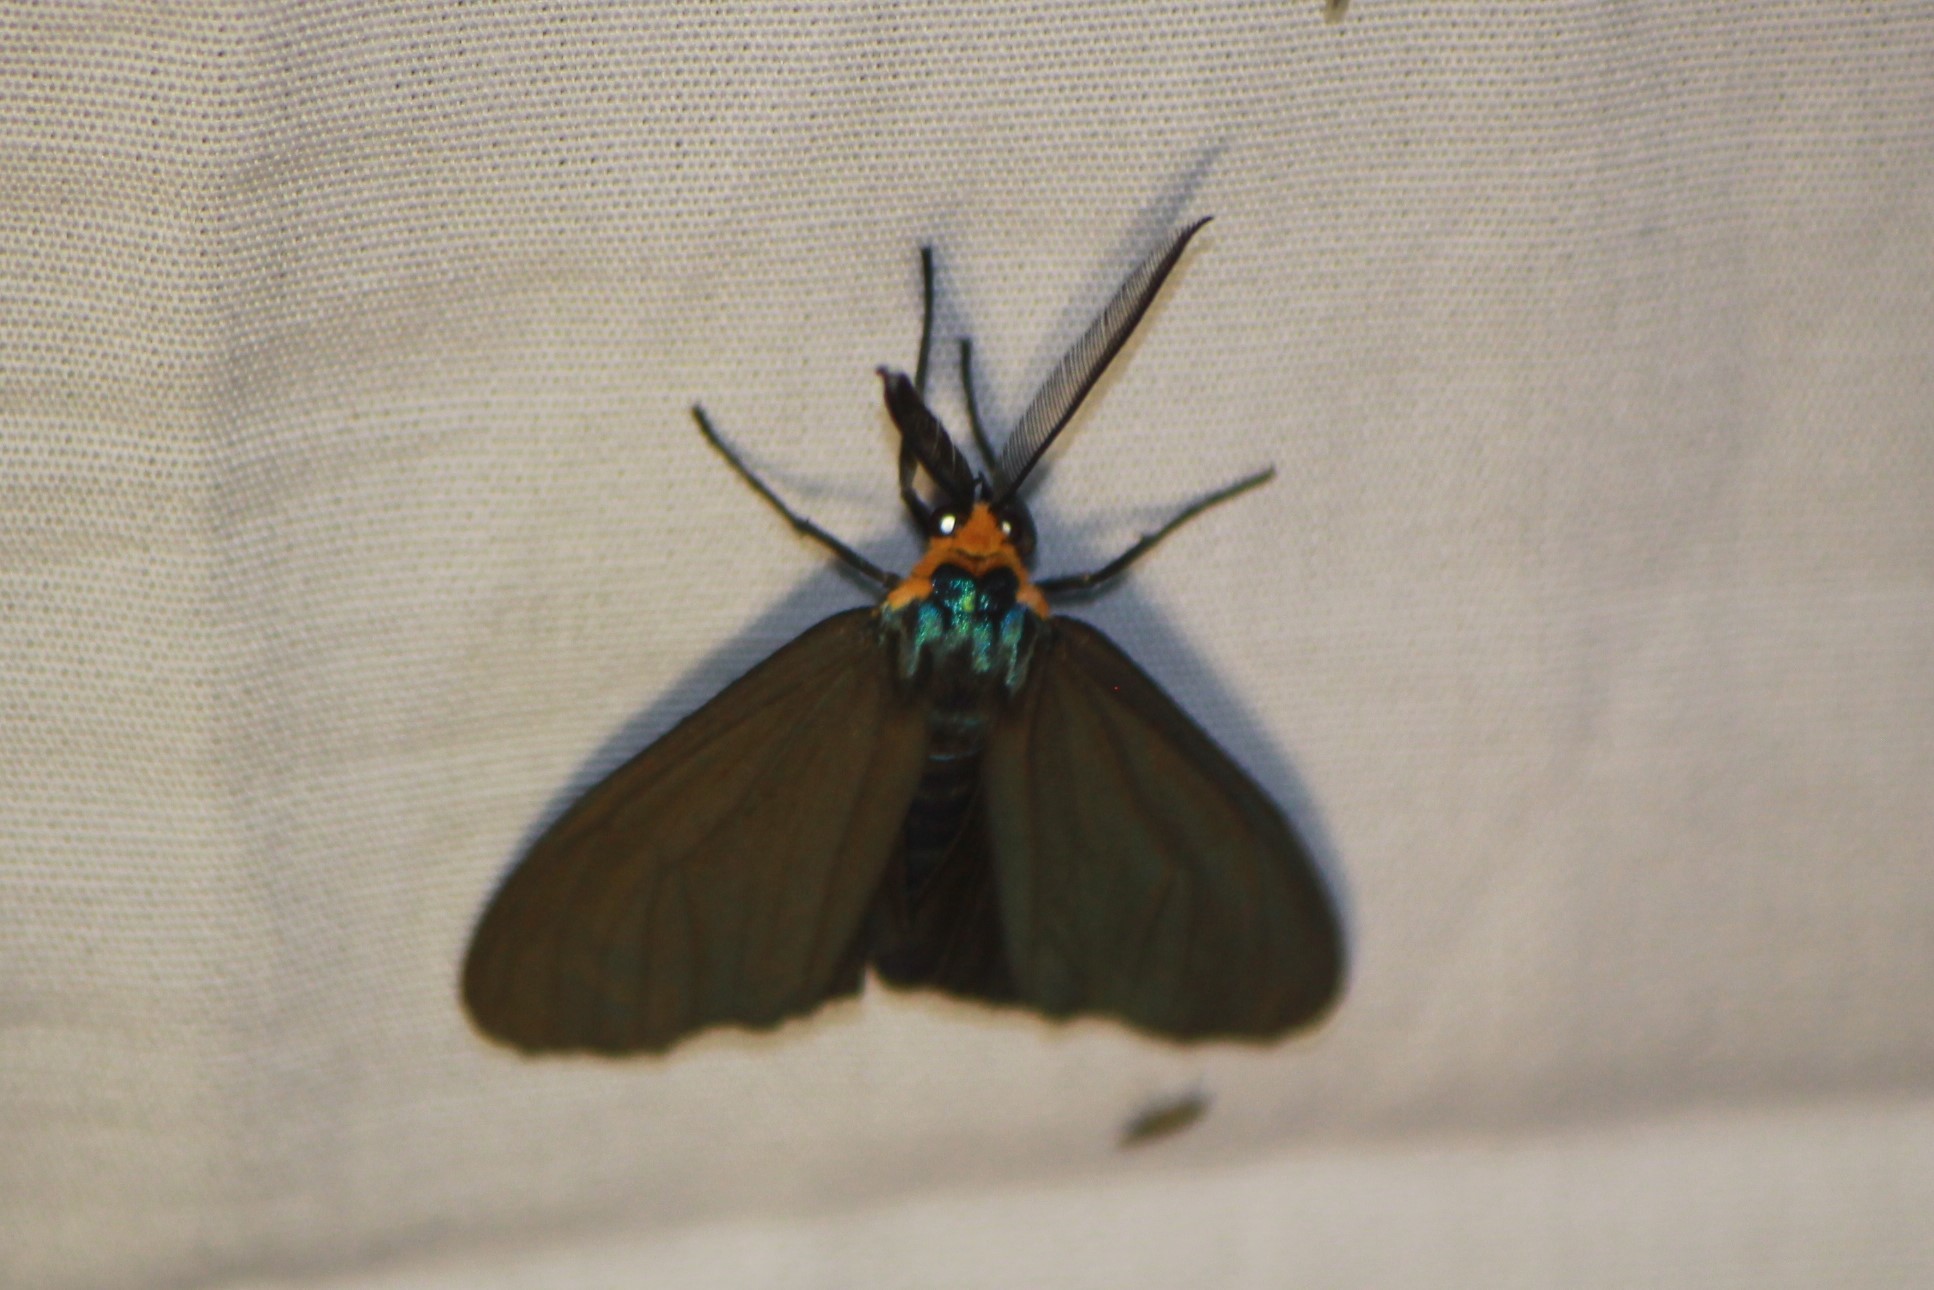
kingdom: Animalia
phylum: Arthropoda
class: Insecta
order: Lepidoptera
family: Erebidae
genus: Ctenucha
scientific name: Ctenucha virginica
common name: Virginia ctenucha moth
